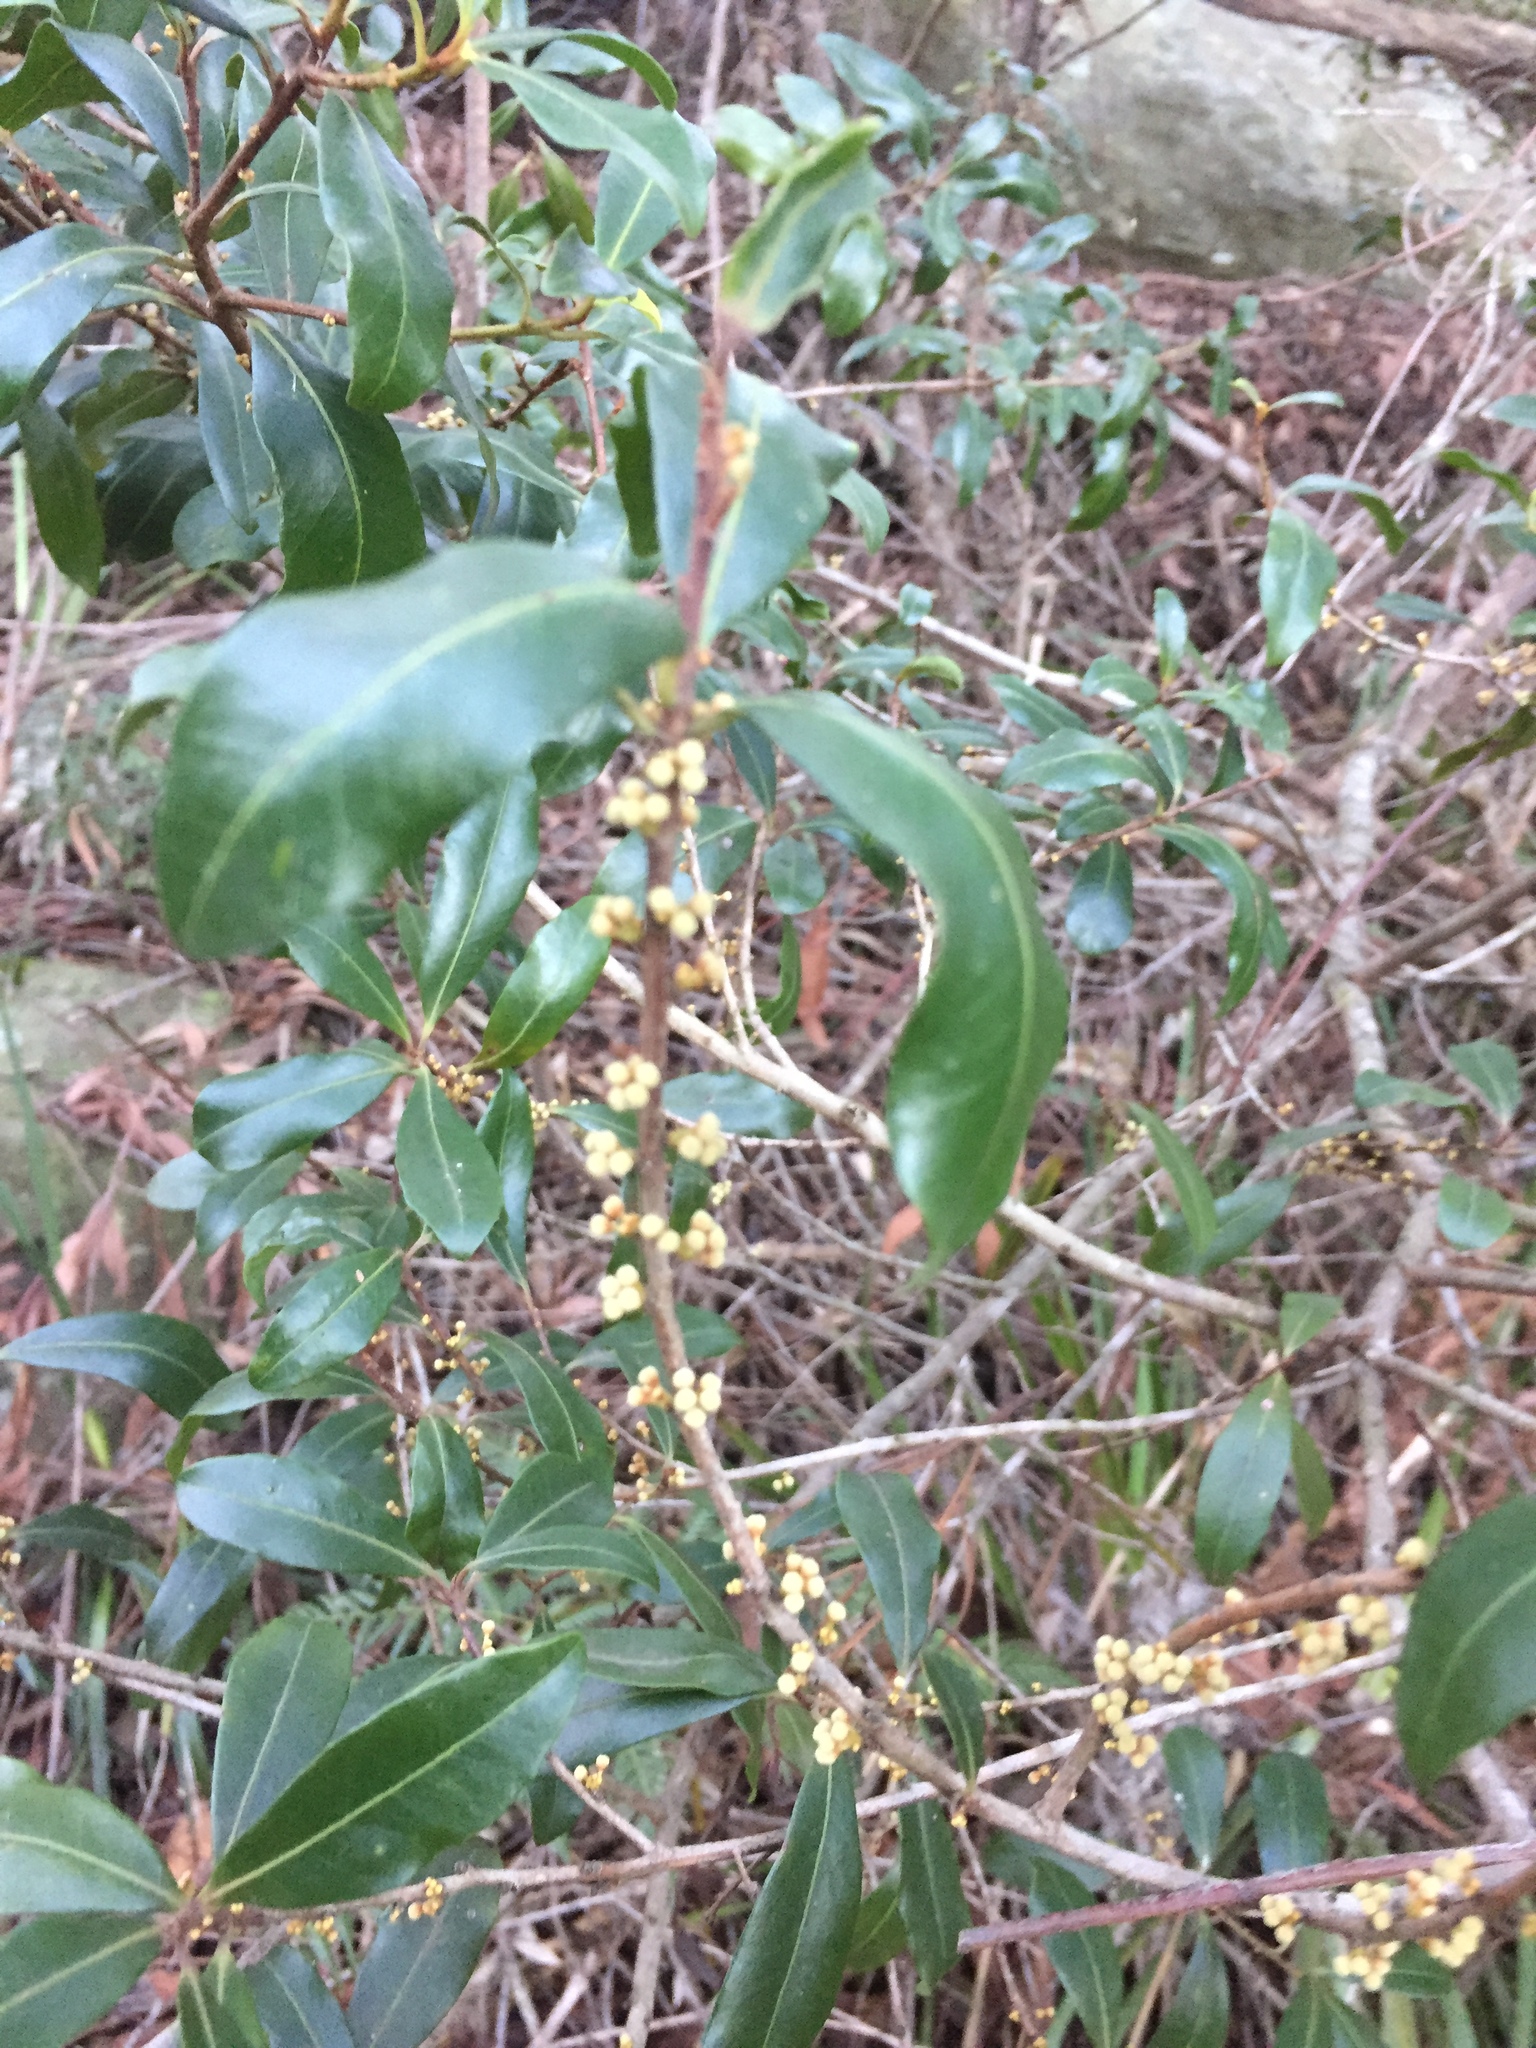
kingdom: Plantae
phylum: Tracheophyta
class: Magnoliopsida
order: Ericales
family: Primulaceae
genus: Myrsine
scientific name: Myrsine variabilis
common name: Brush muttonwood
